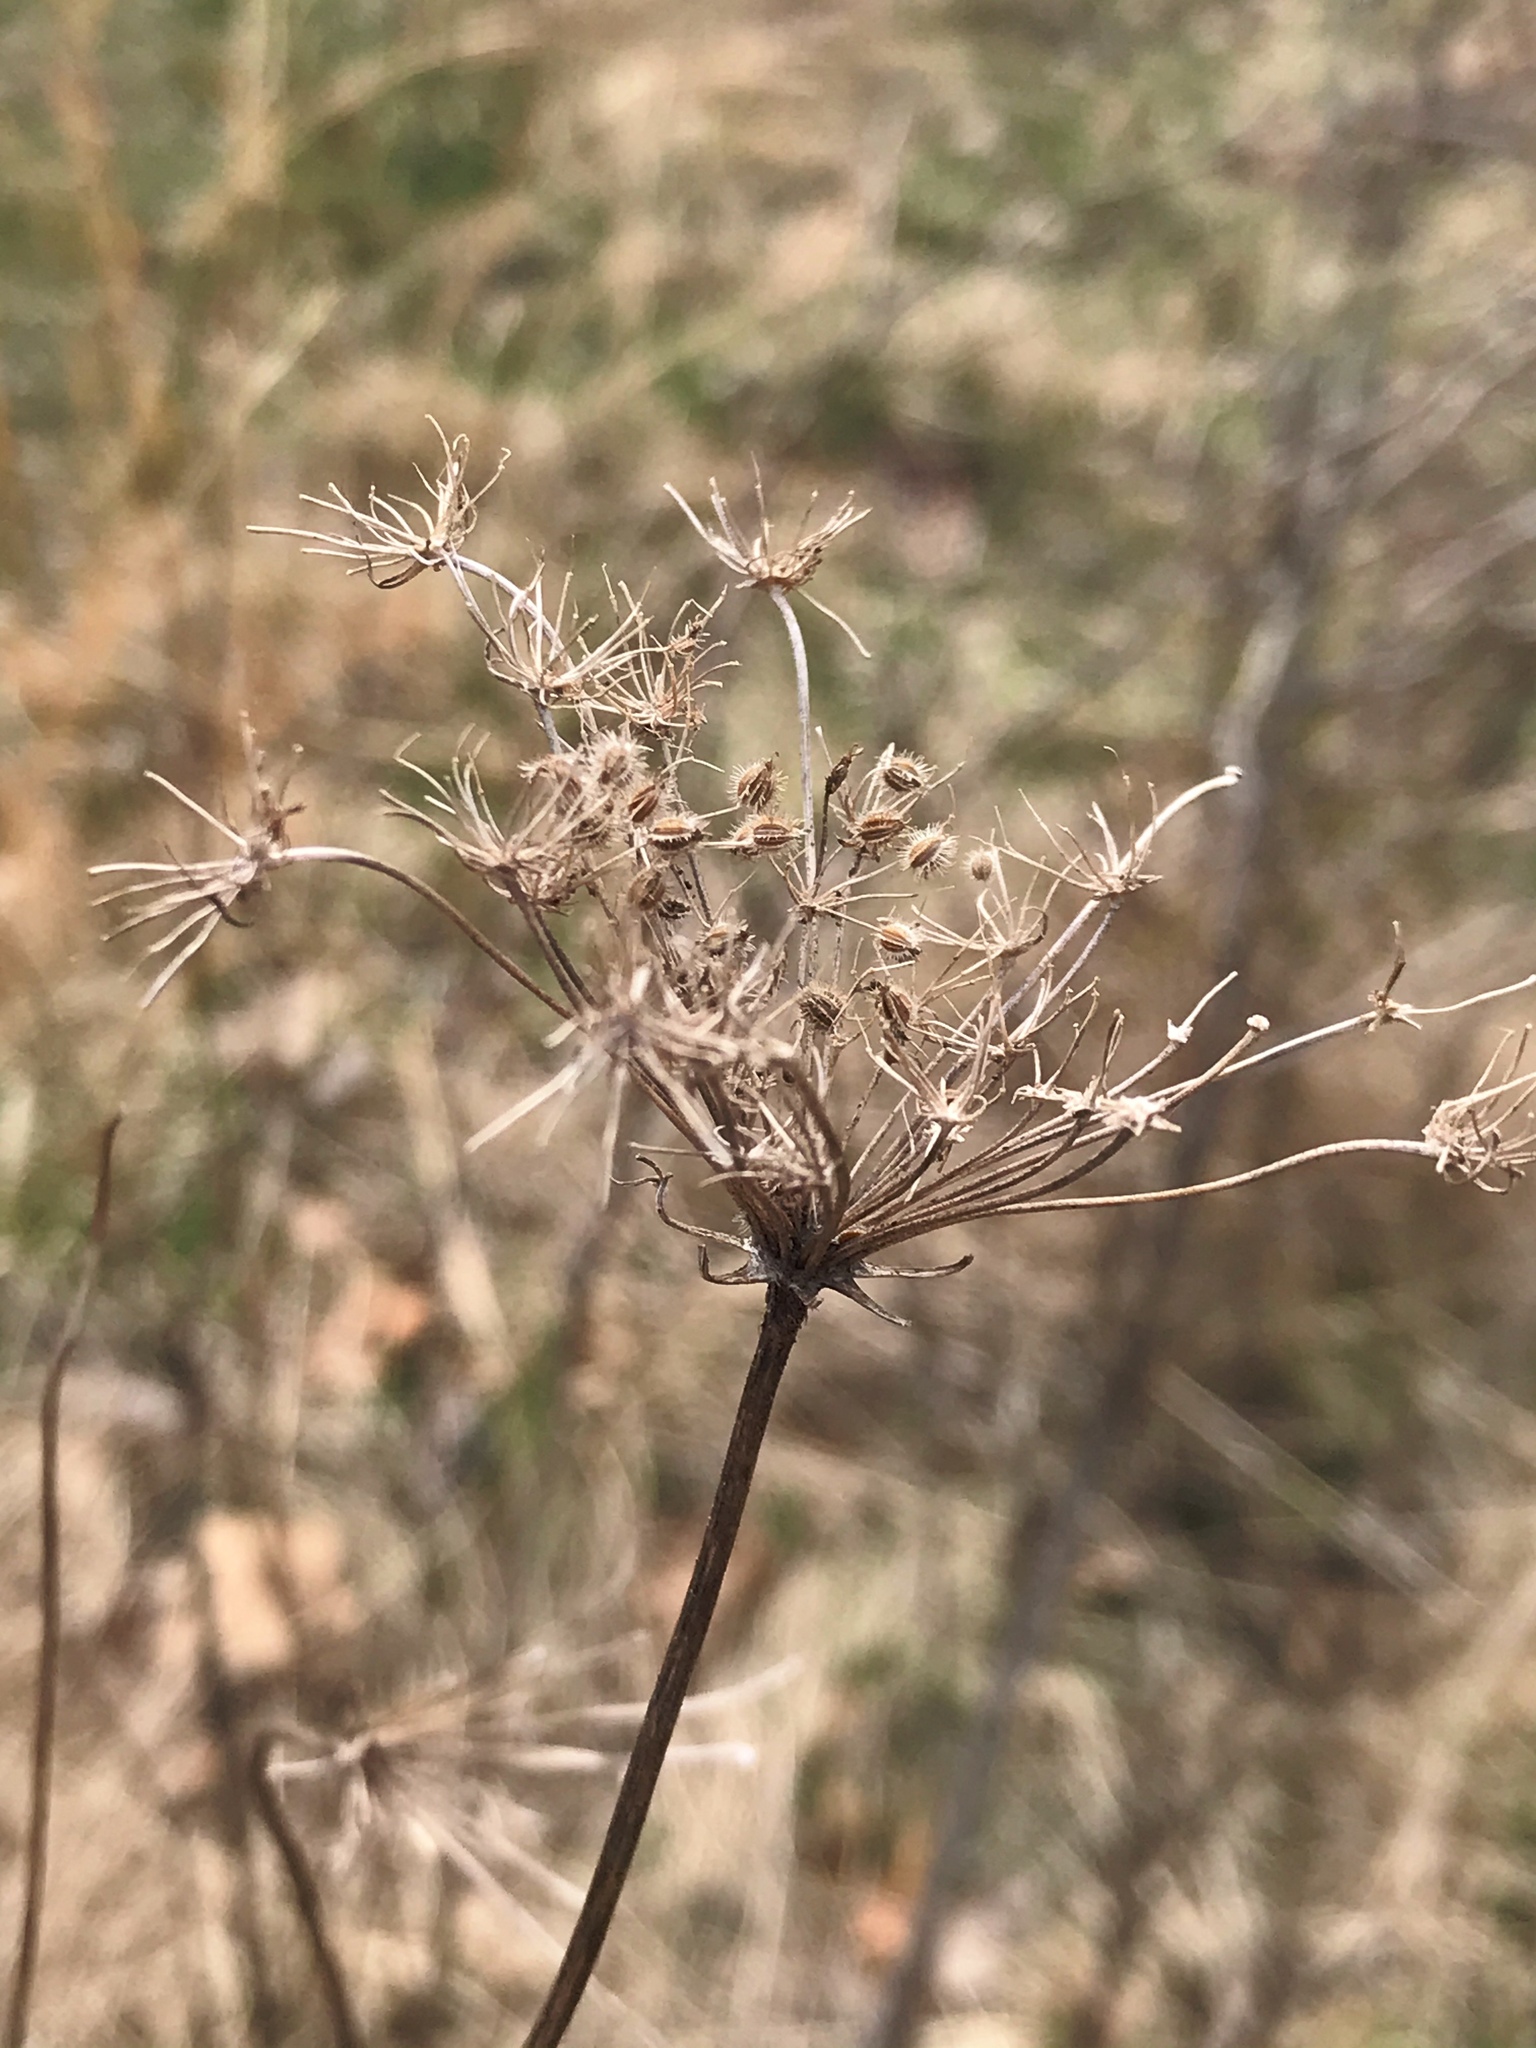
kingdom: Plantae
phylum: Tracheophyta
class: Magnoliopsida
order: Apiales
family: Apiaceae
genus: Daucus
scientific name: Daucus carota
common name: Wild carrot
